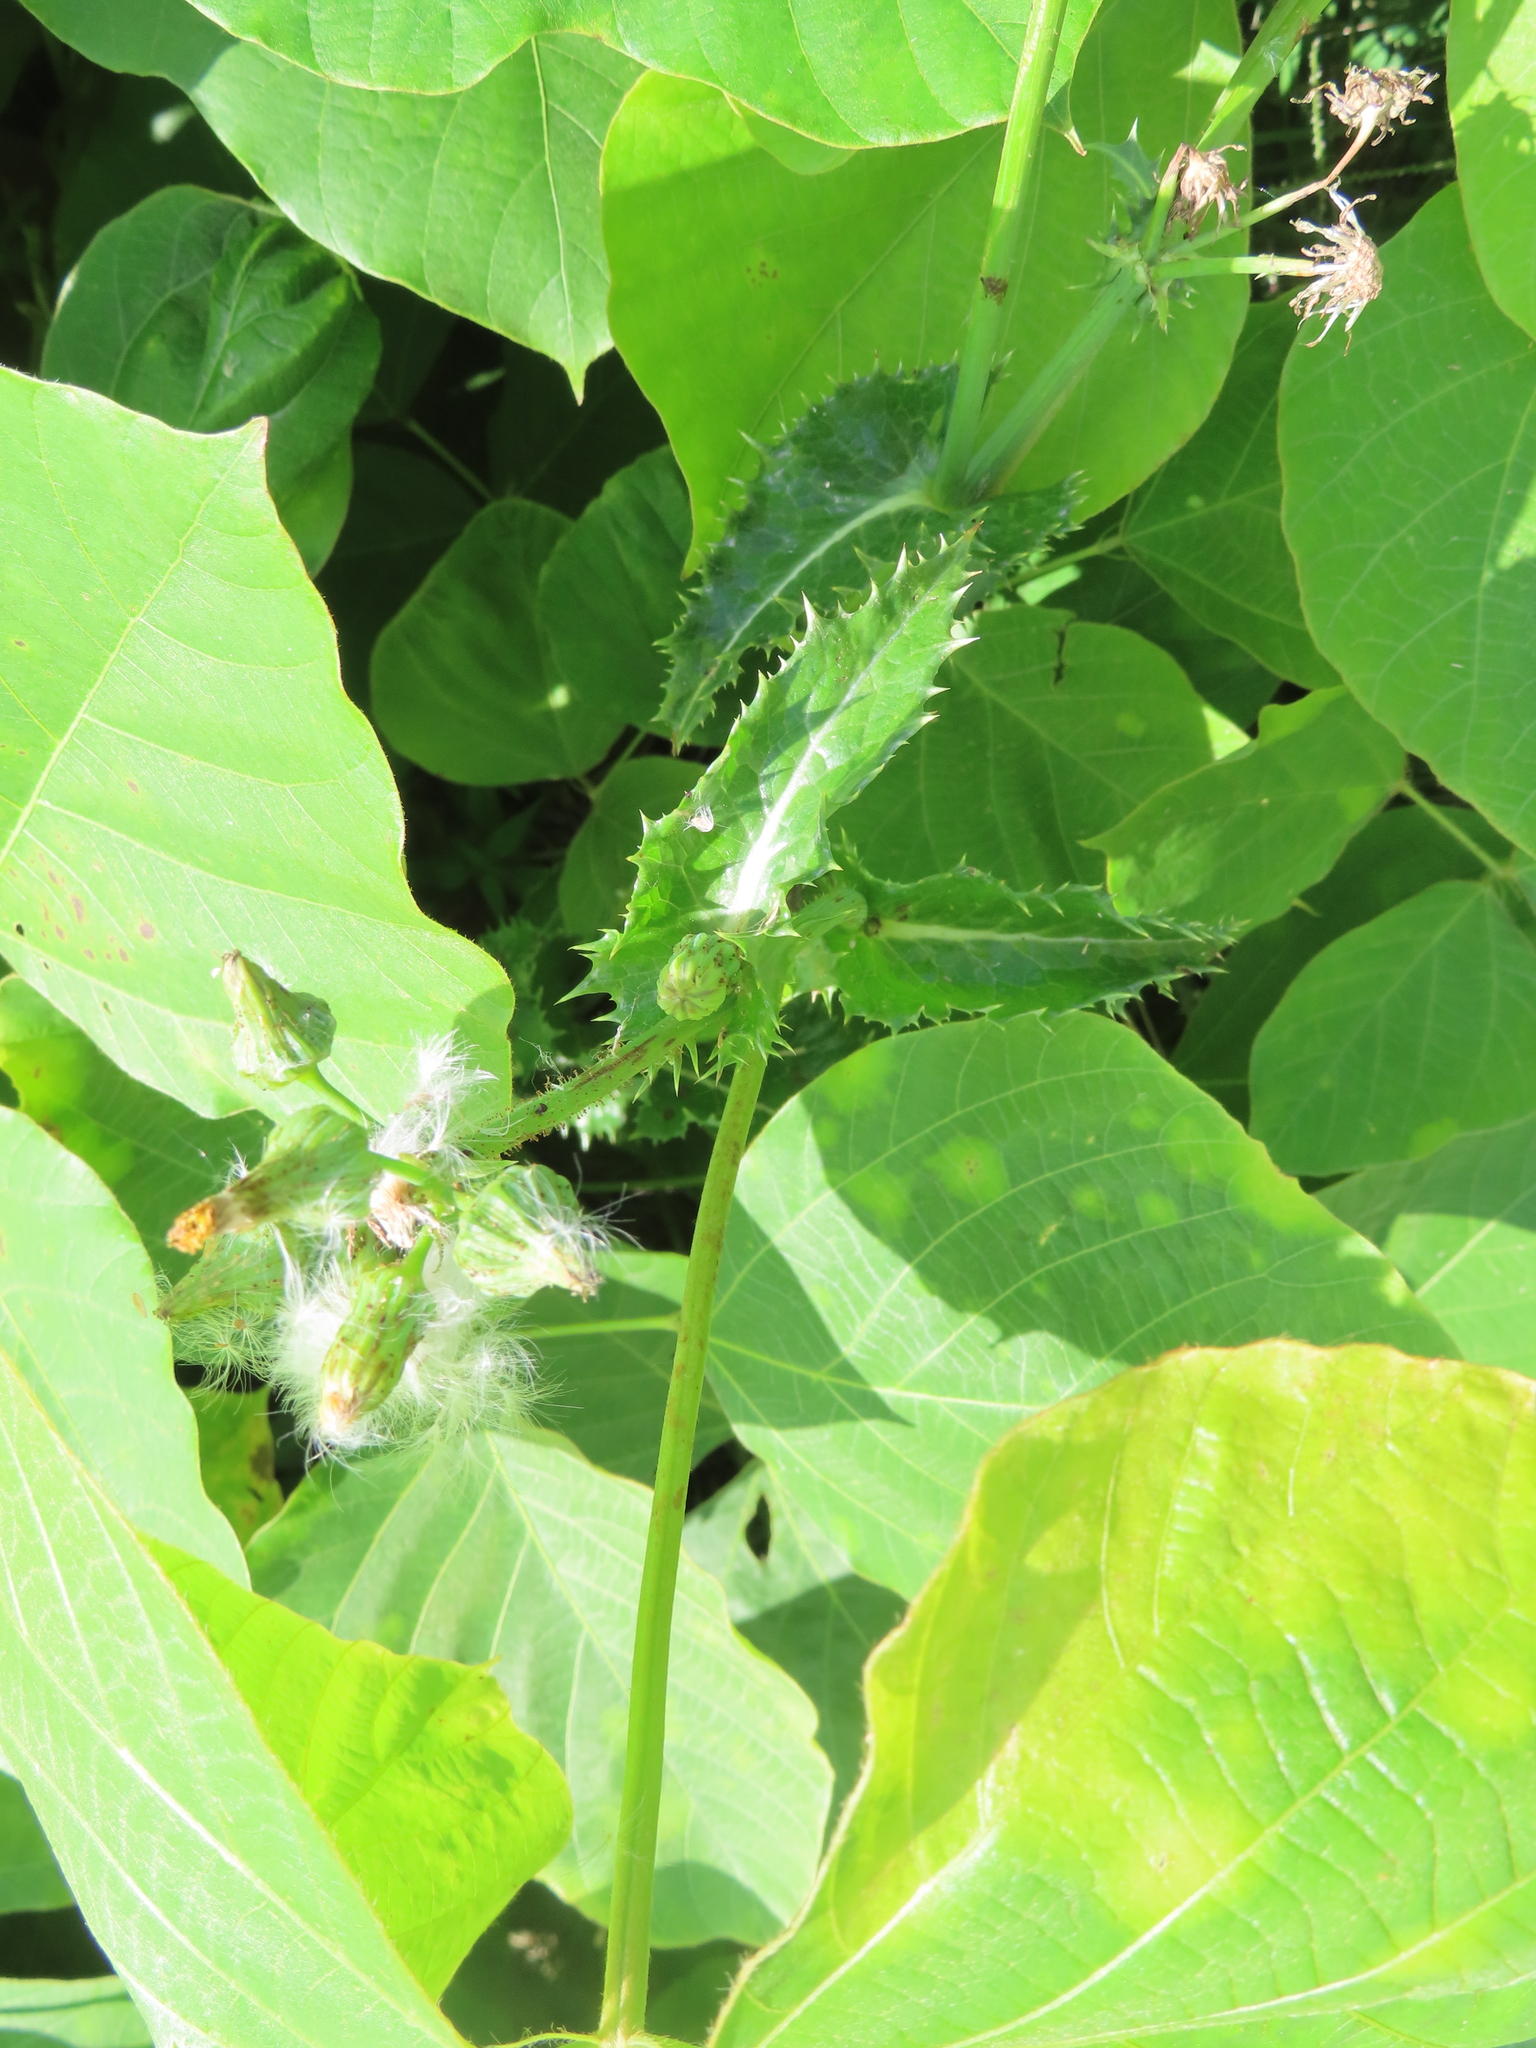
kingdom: Plantae
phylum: Tracheophyta
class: Magnoliopsida
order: Asterales
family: Asteraceae
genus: Sonchus
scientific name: Sonchus asper
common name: Prickly sow-thistle
